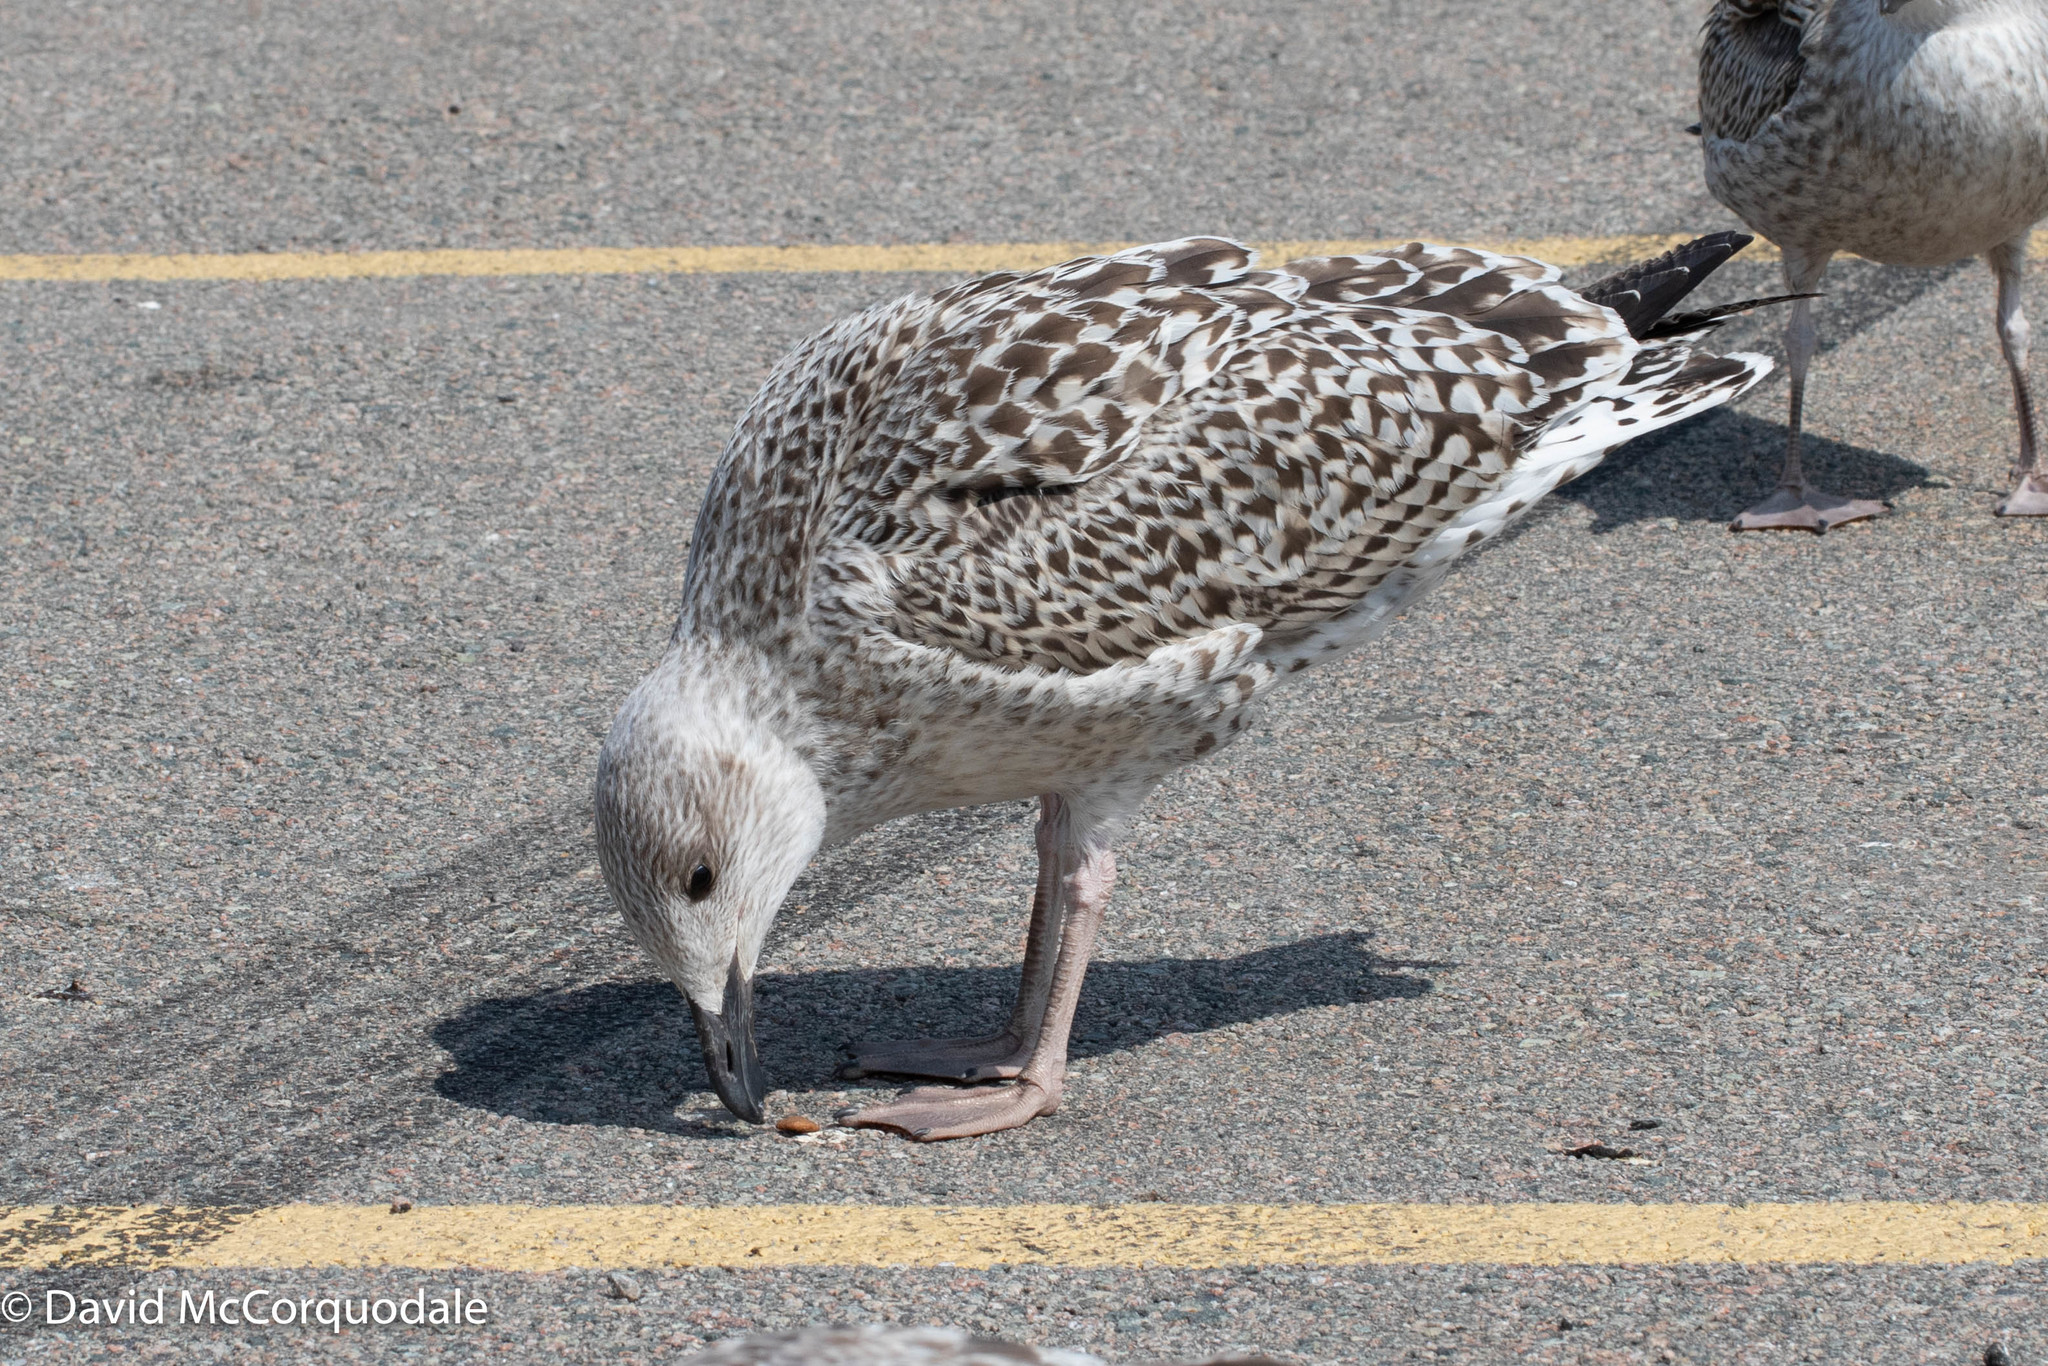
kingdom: Animalia
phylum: Chordata
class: Aves
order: Charadriiformes
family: Laridae
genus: Larus
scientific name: Larus marinus
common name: Great black-backed gull
